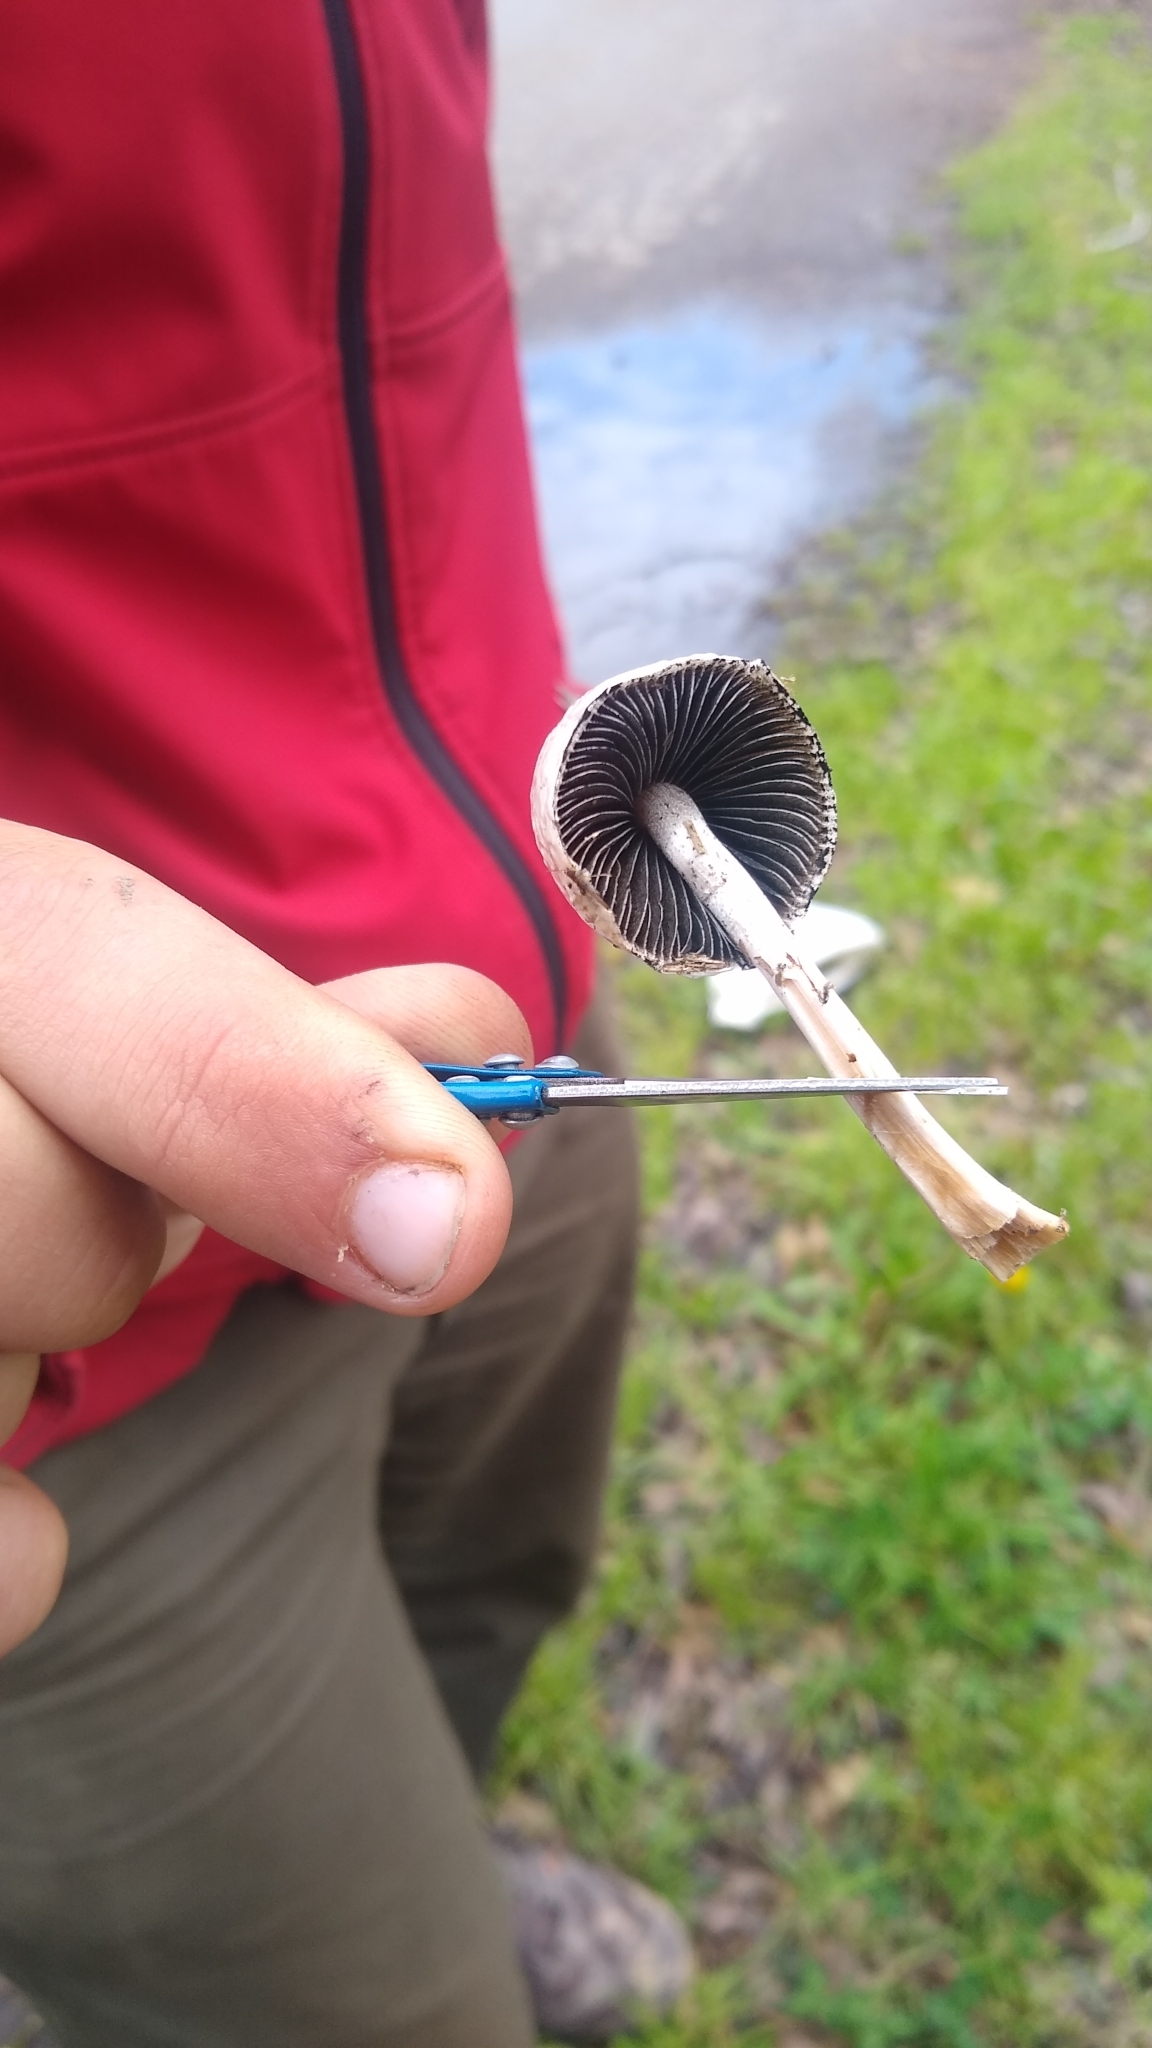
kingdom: Fungi
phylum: Basidiomycota
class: Agaricomycetes
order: Agaricales
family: Bolbitiaceae
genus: Panaeolus
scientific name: Panaeolus antillarum
